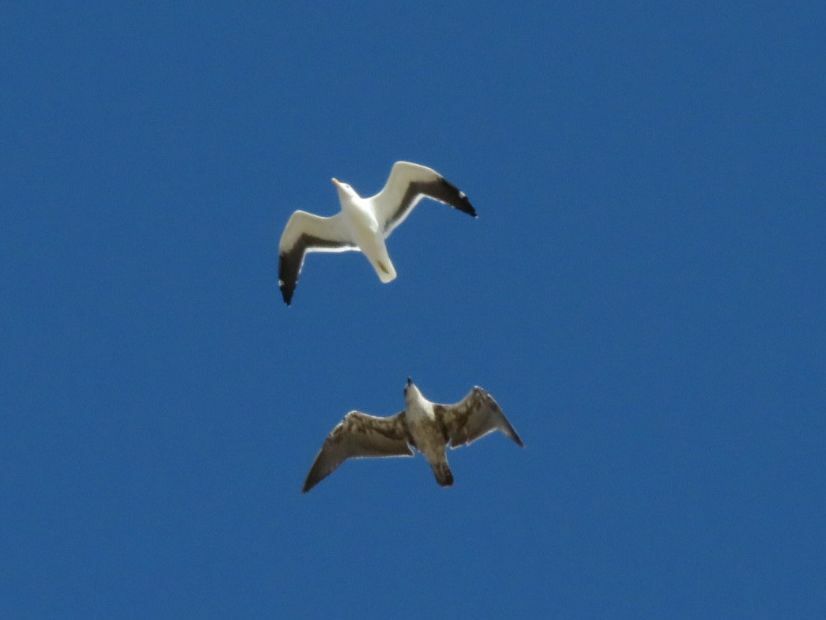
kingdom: Animalia
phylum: Chordata
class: Aves
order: Charadriiformes
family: Laridae
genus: Larus
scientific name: Larus dominicanus
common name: Kelp gull
